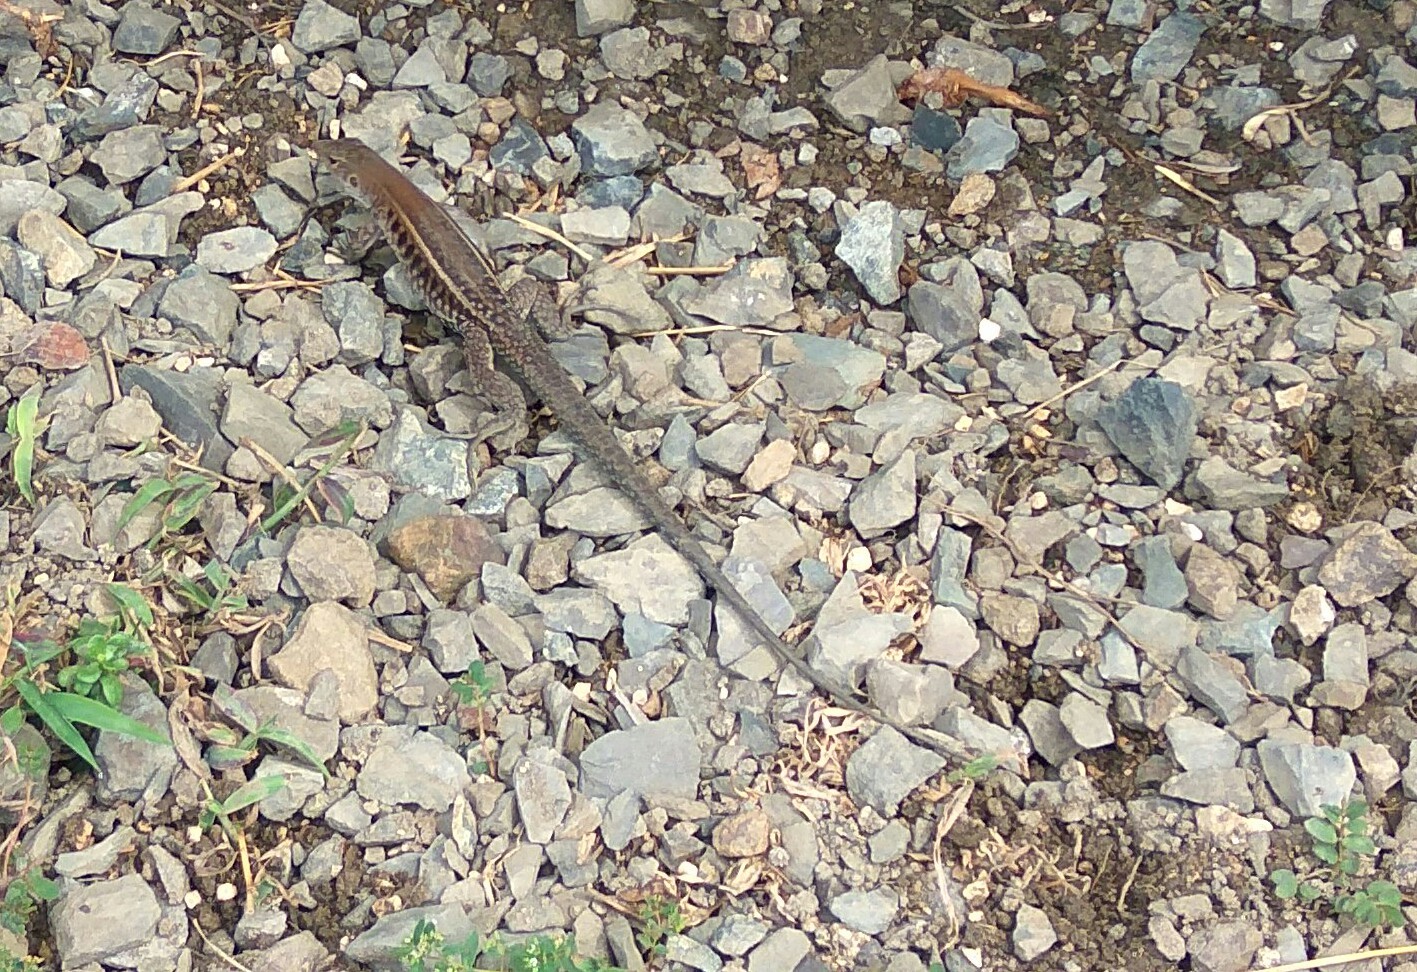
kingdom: Animalia
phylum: Chordata
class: Squamata
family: Teiidae
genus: Pholidoscelis
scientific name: Pholidoscelis exsul
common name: Common puerto rican ameiva
